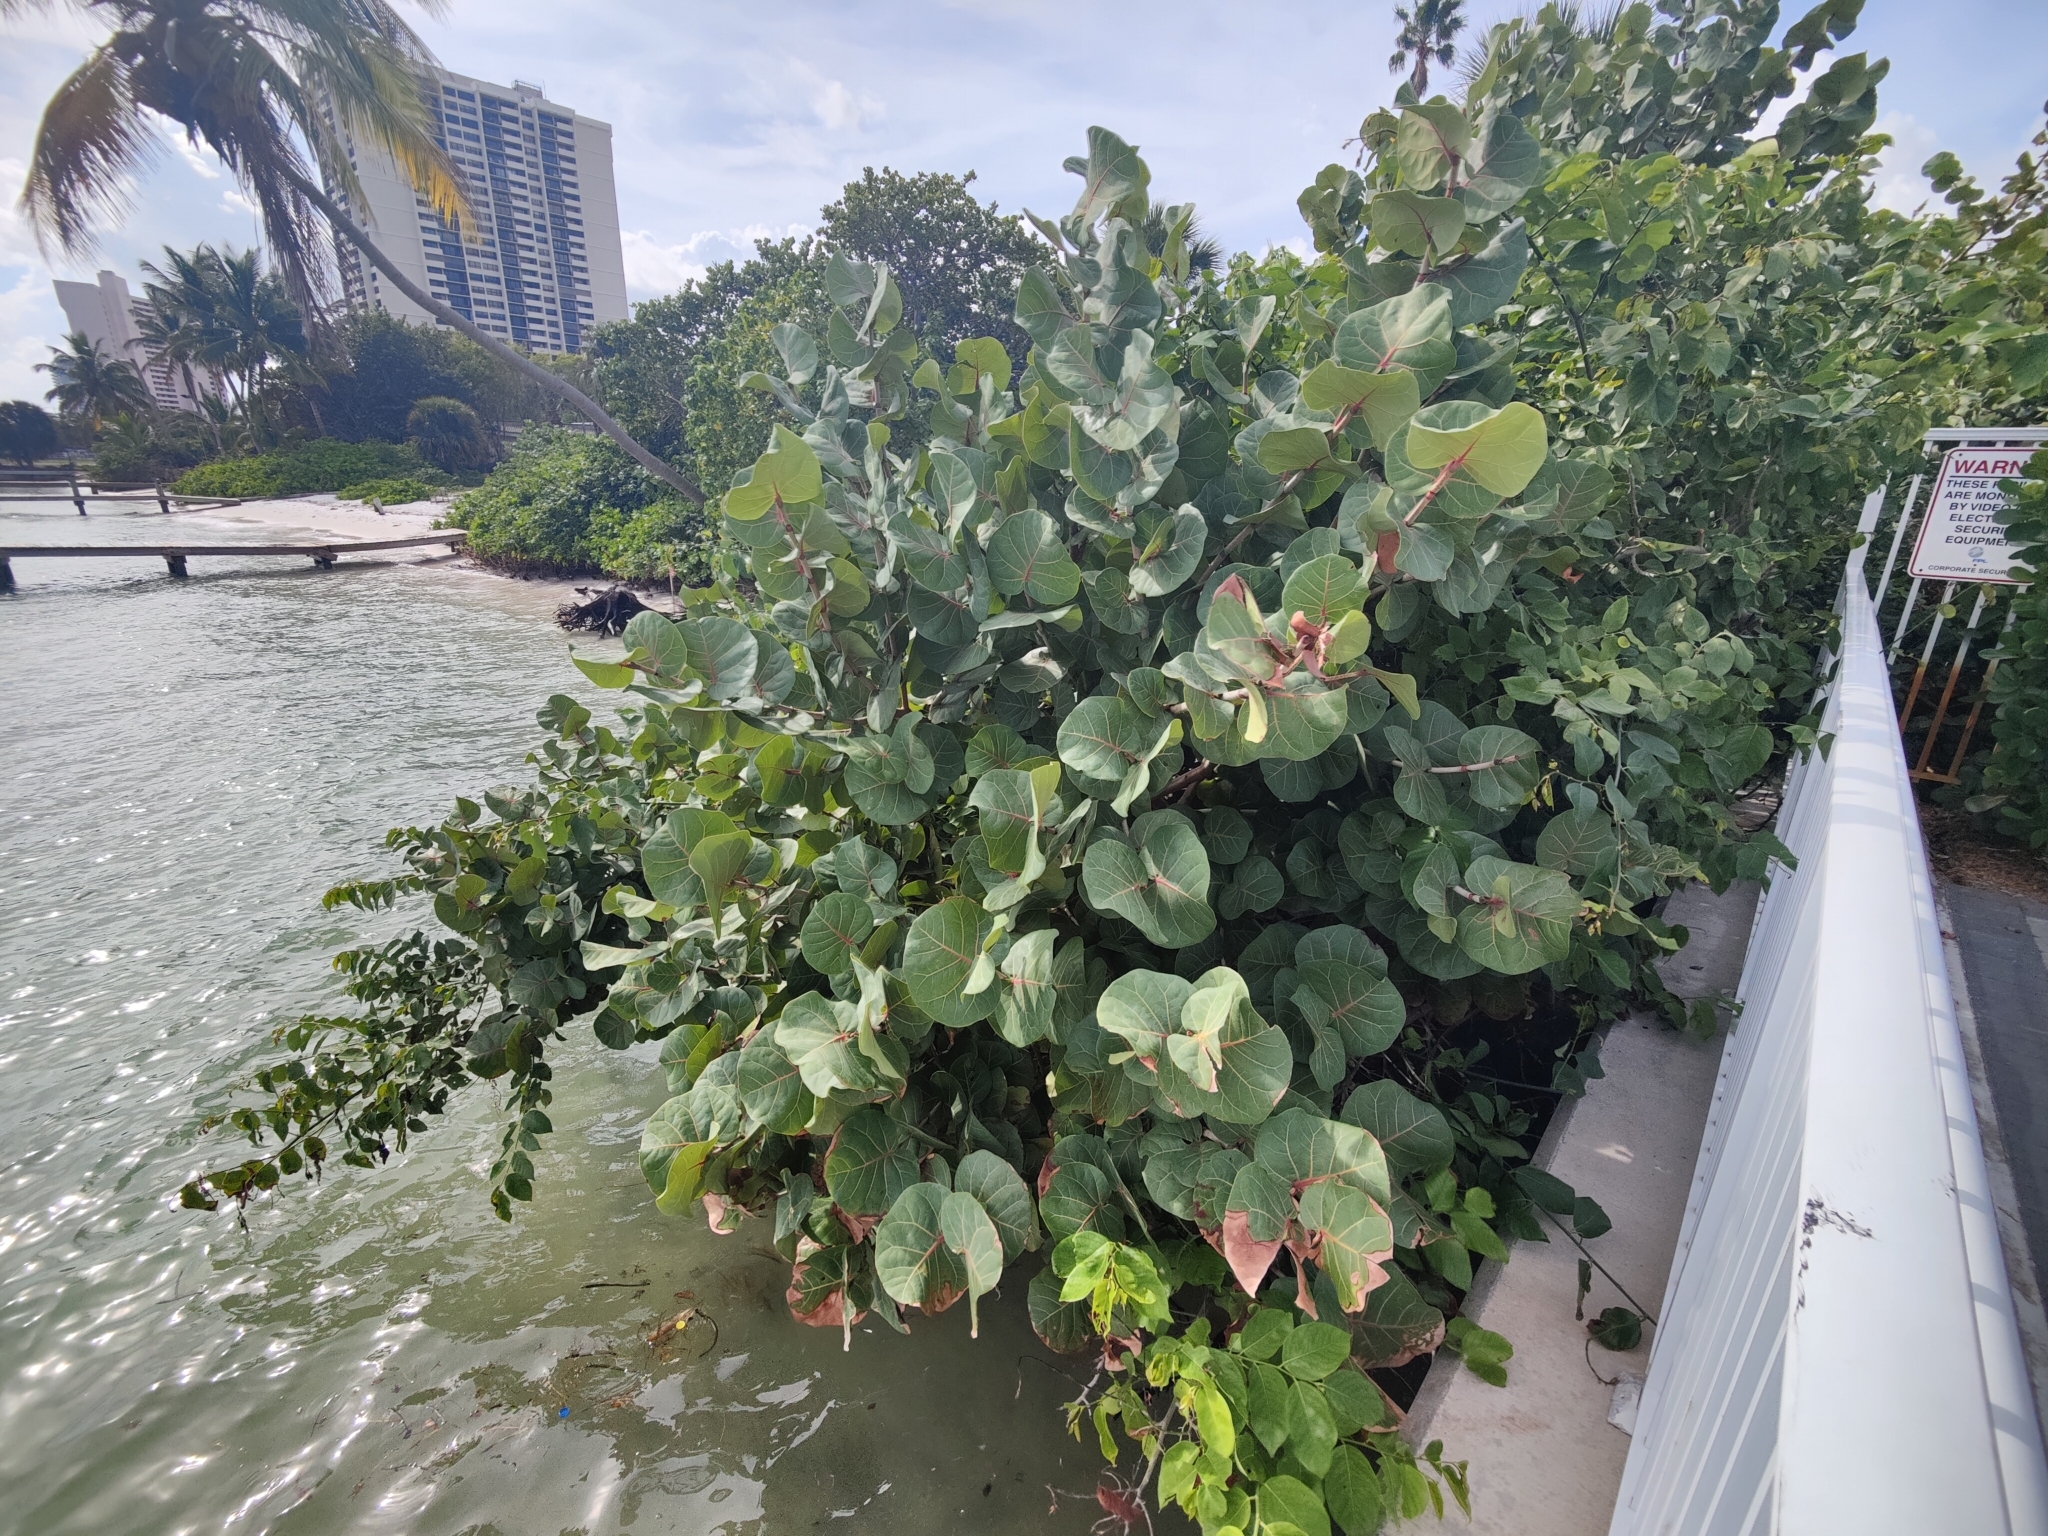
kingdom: Plantae
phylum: Tracheophyta
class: Magnoliopsida
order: Caryophyllales
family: Polygonaceae
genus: Coccoloba
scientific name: Coccoloba uvifera
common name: Seagrape
